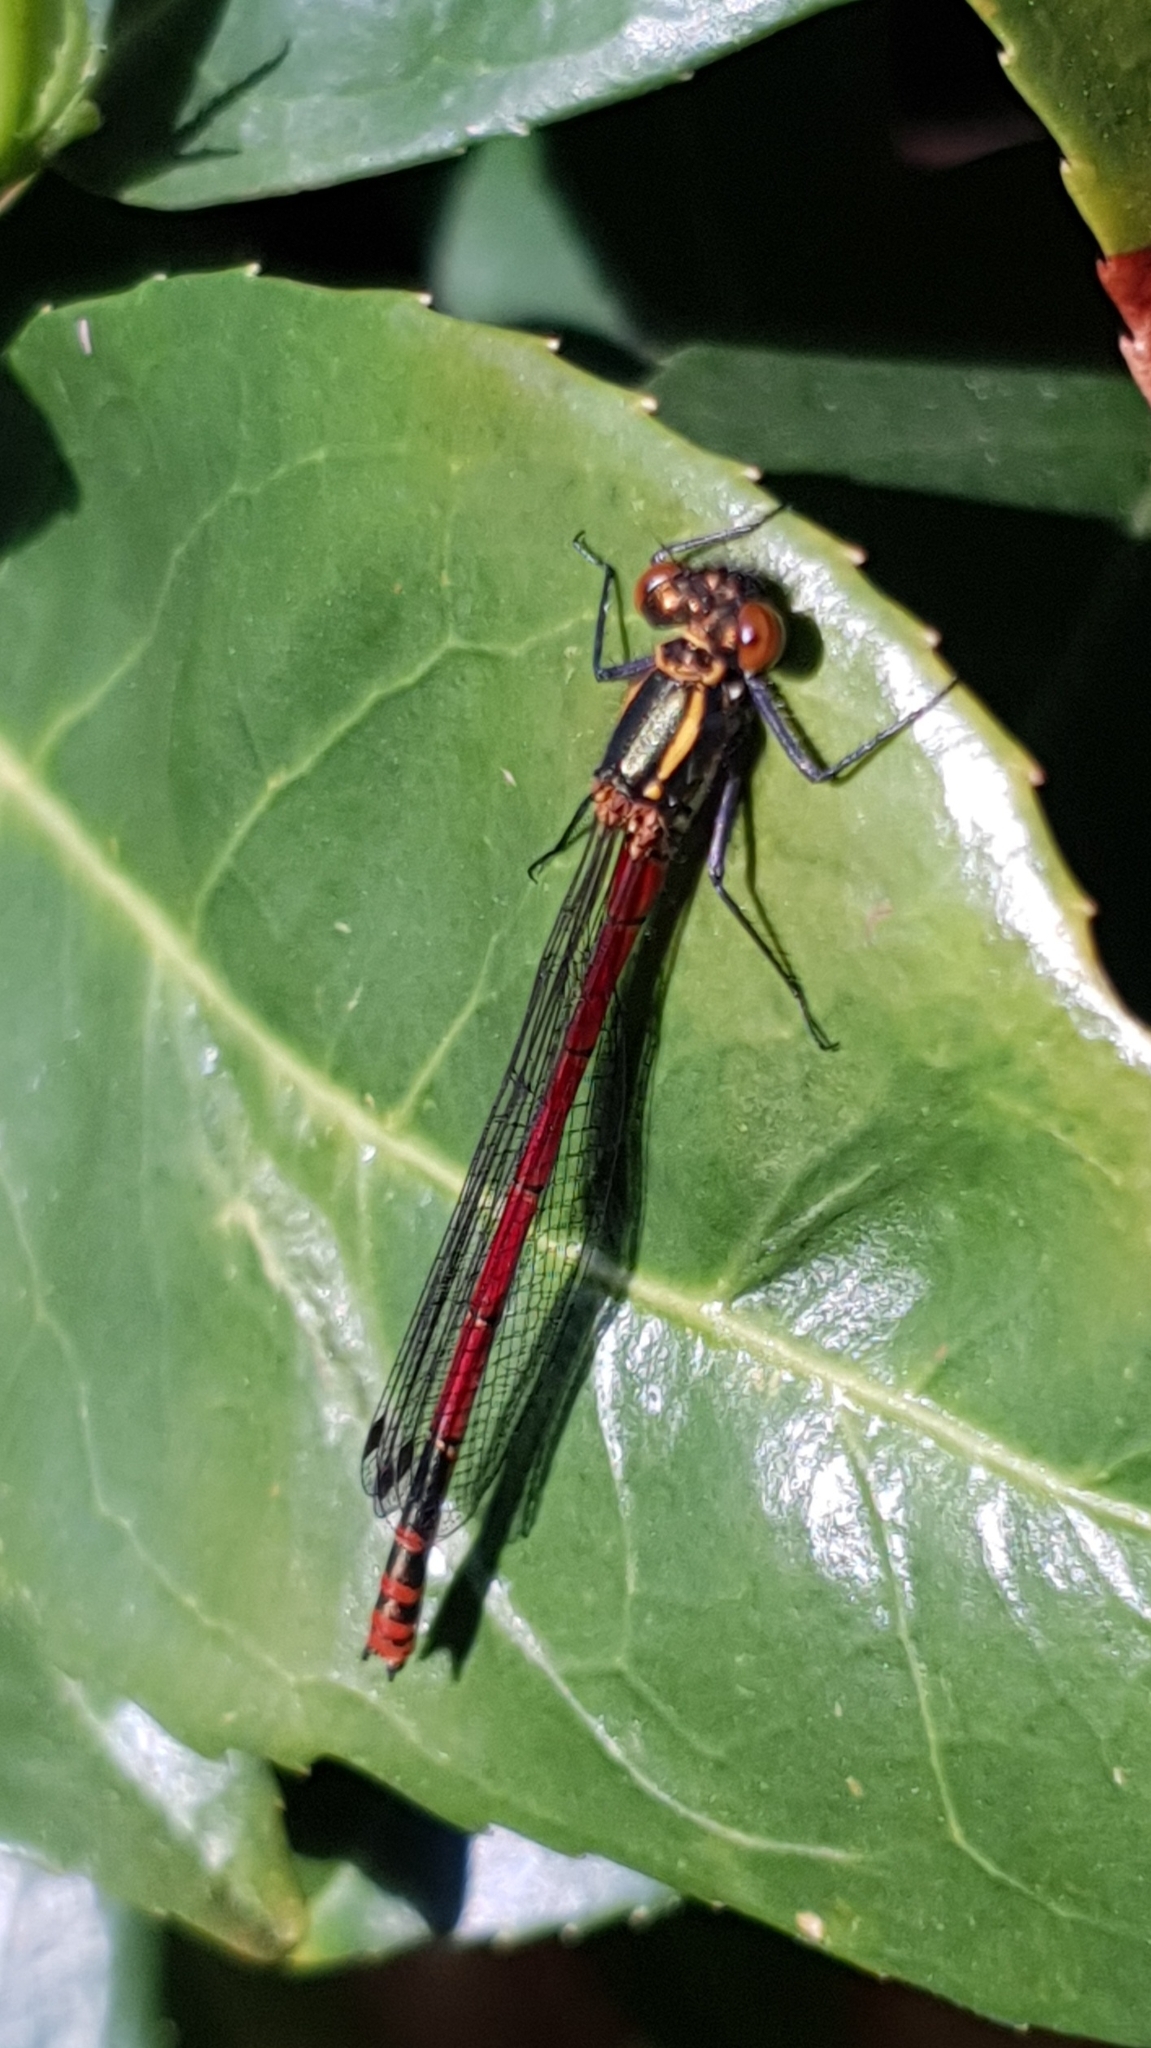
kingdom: Animalia
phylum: Arthropoda
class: Insecta
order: Odonata
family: Coenagrionidae
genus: Pyrrhosoma
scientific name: Pyrrhosoma nymphula
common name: Large red damsel
